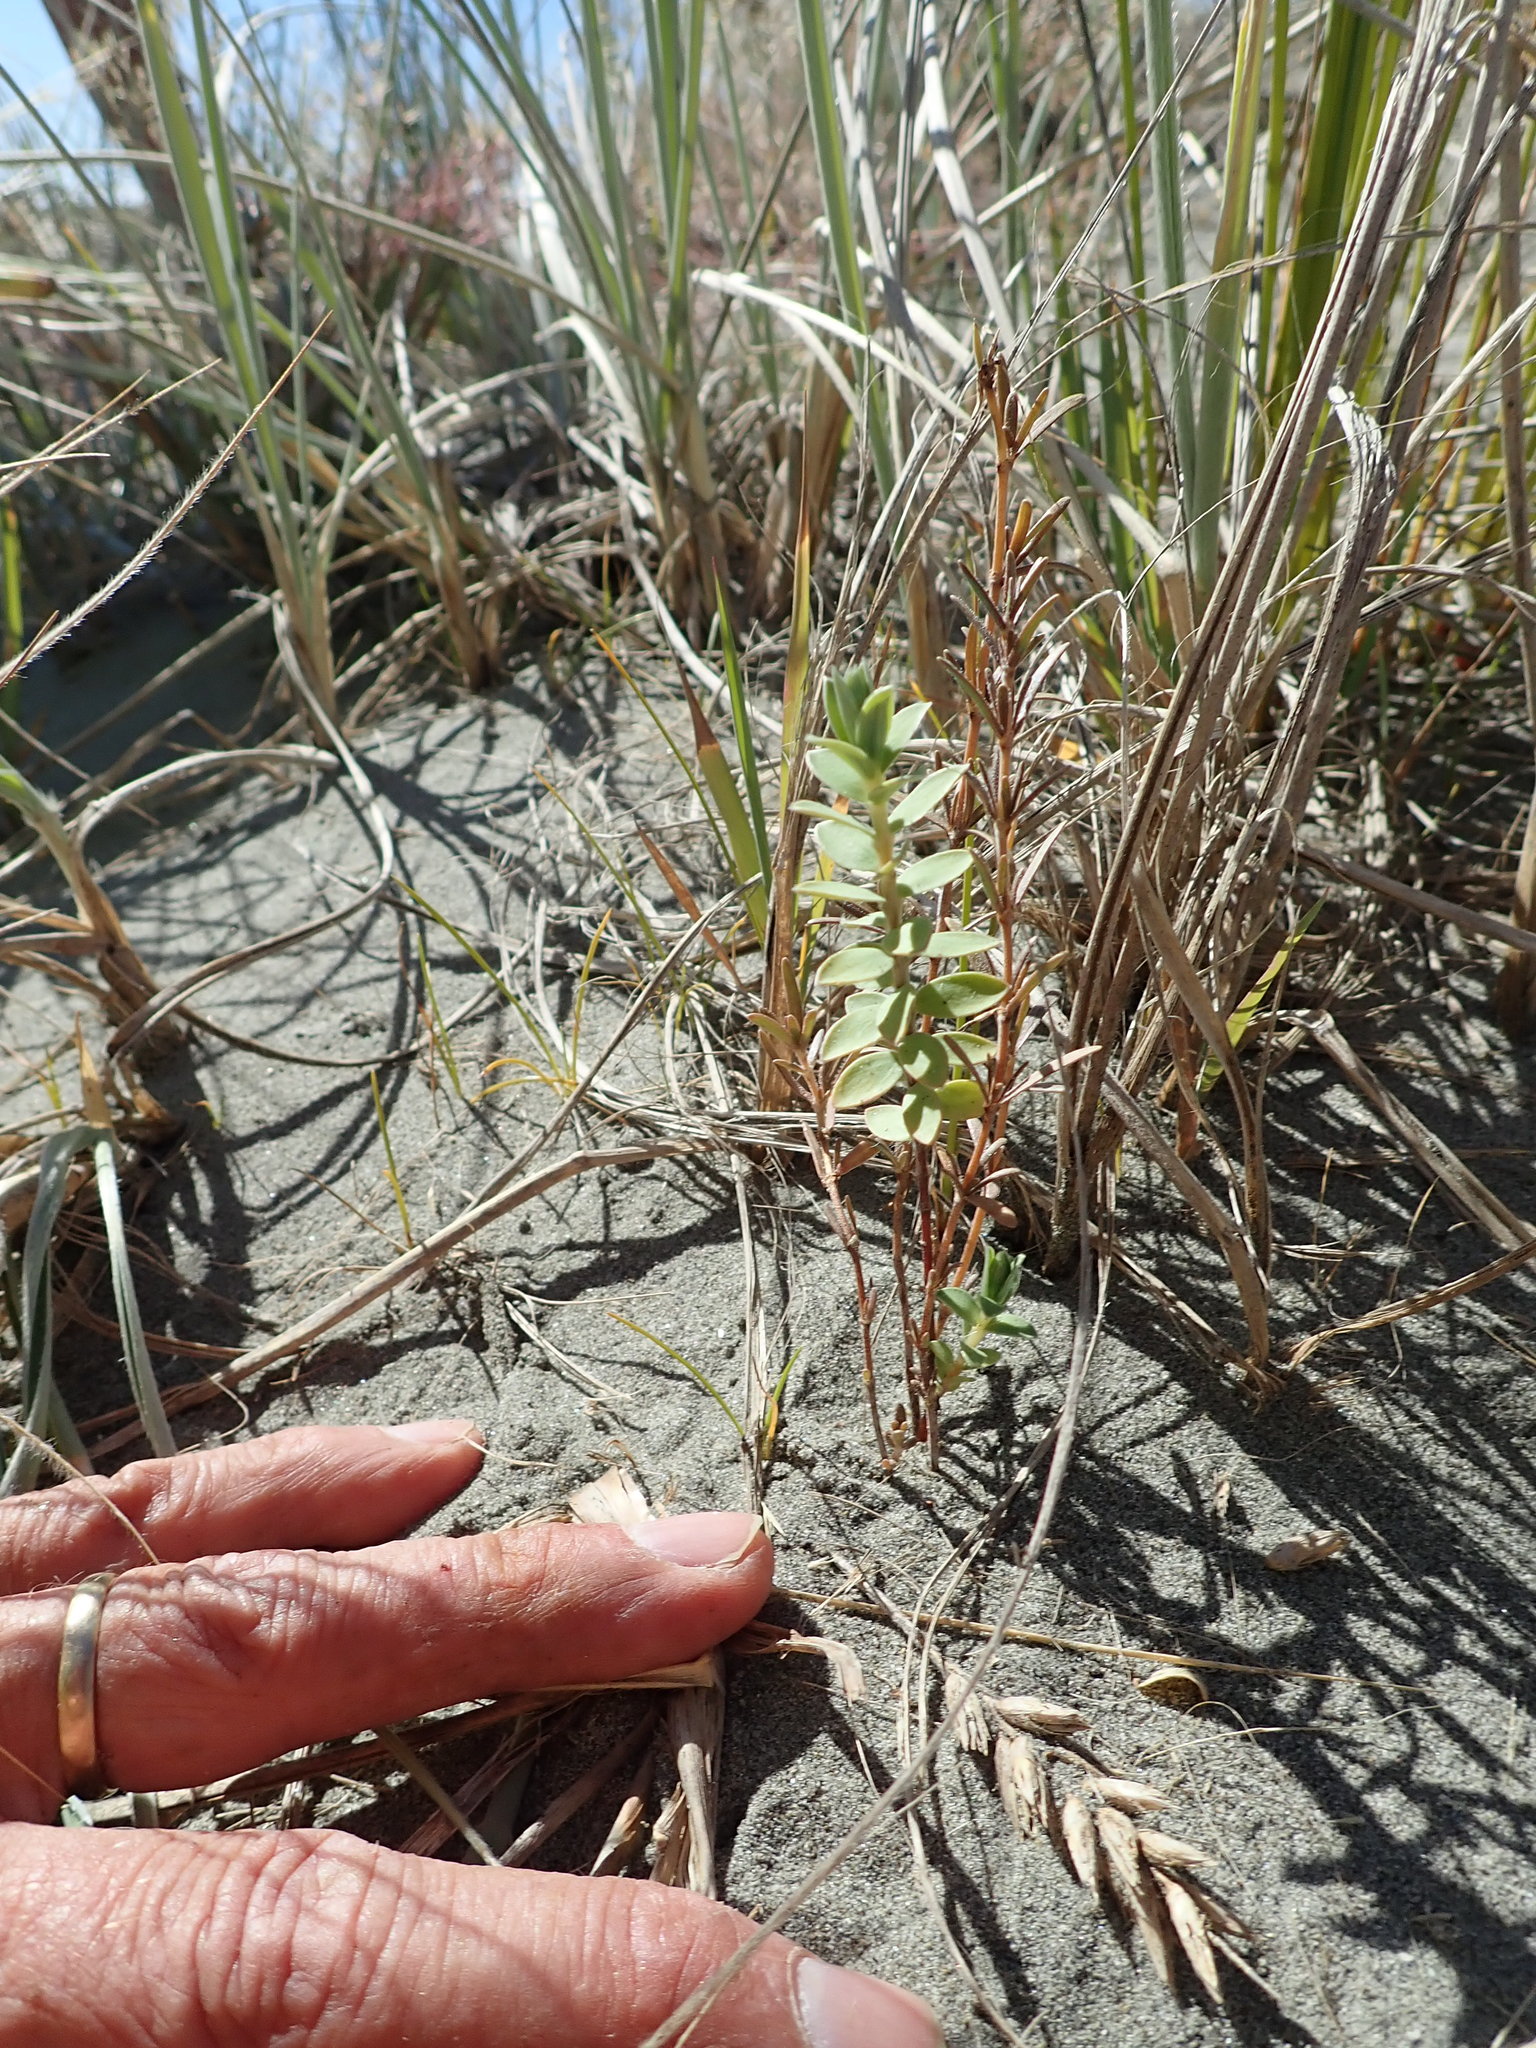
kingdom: Plantae
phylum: Tracheophyta
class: Magnoliopsida
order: Gentianales
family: Rubiaceae
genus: Coprosma
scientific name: Coprosma acerosa
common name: Sand coprosma
